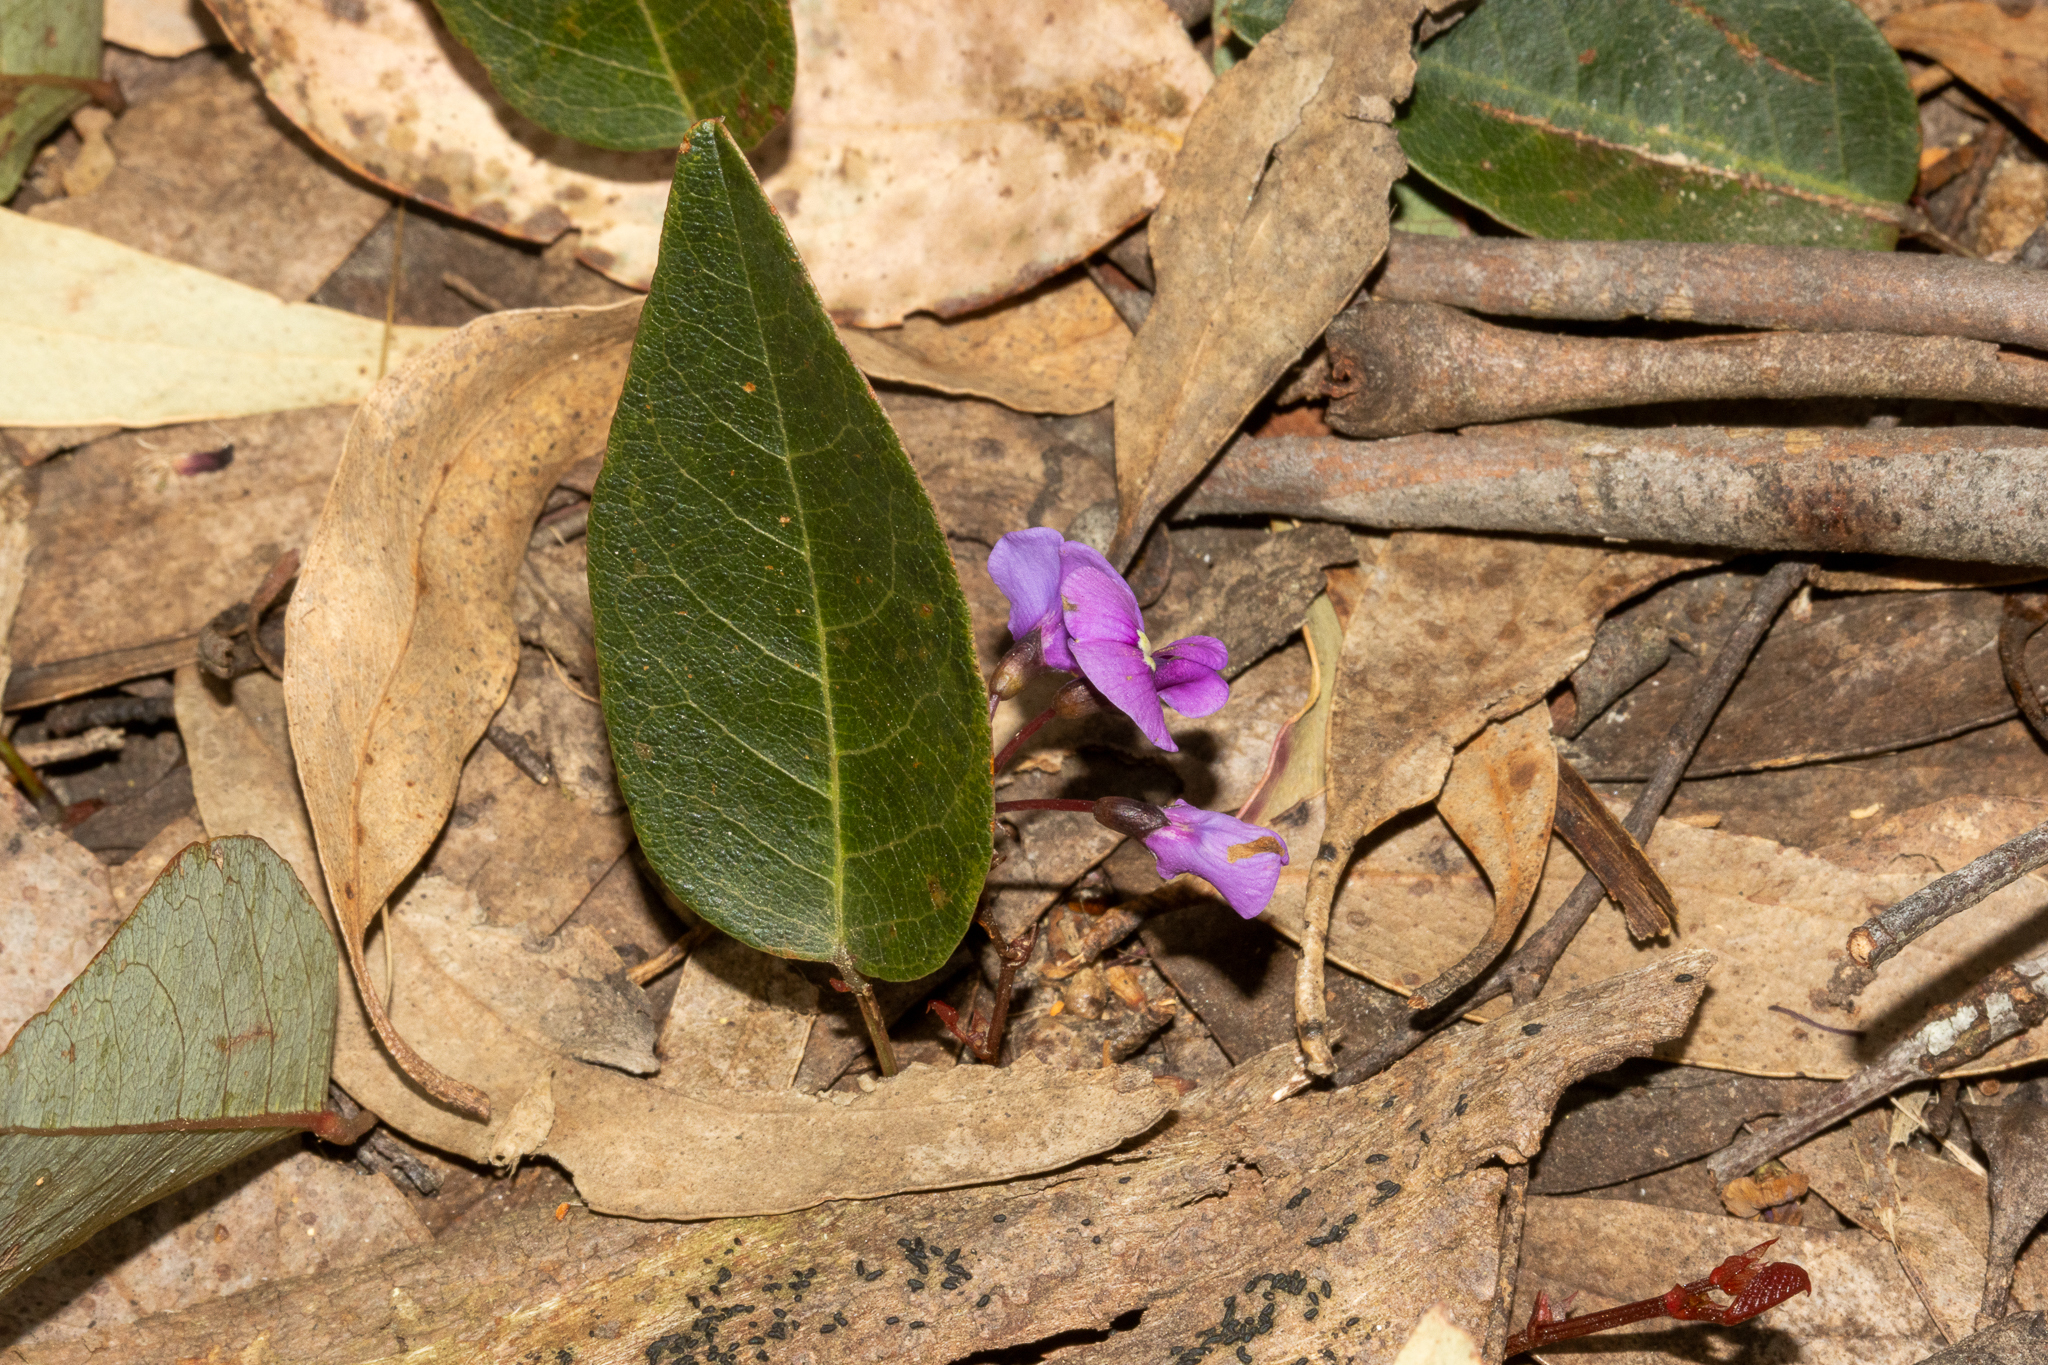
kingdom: Plantae
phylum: Tracheophyta
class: Magnoliopsida
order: Fabales
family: Fabaceae
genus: Hardenbergia
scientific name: Hardenbergia violacea
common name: Coral-pea
